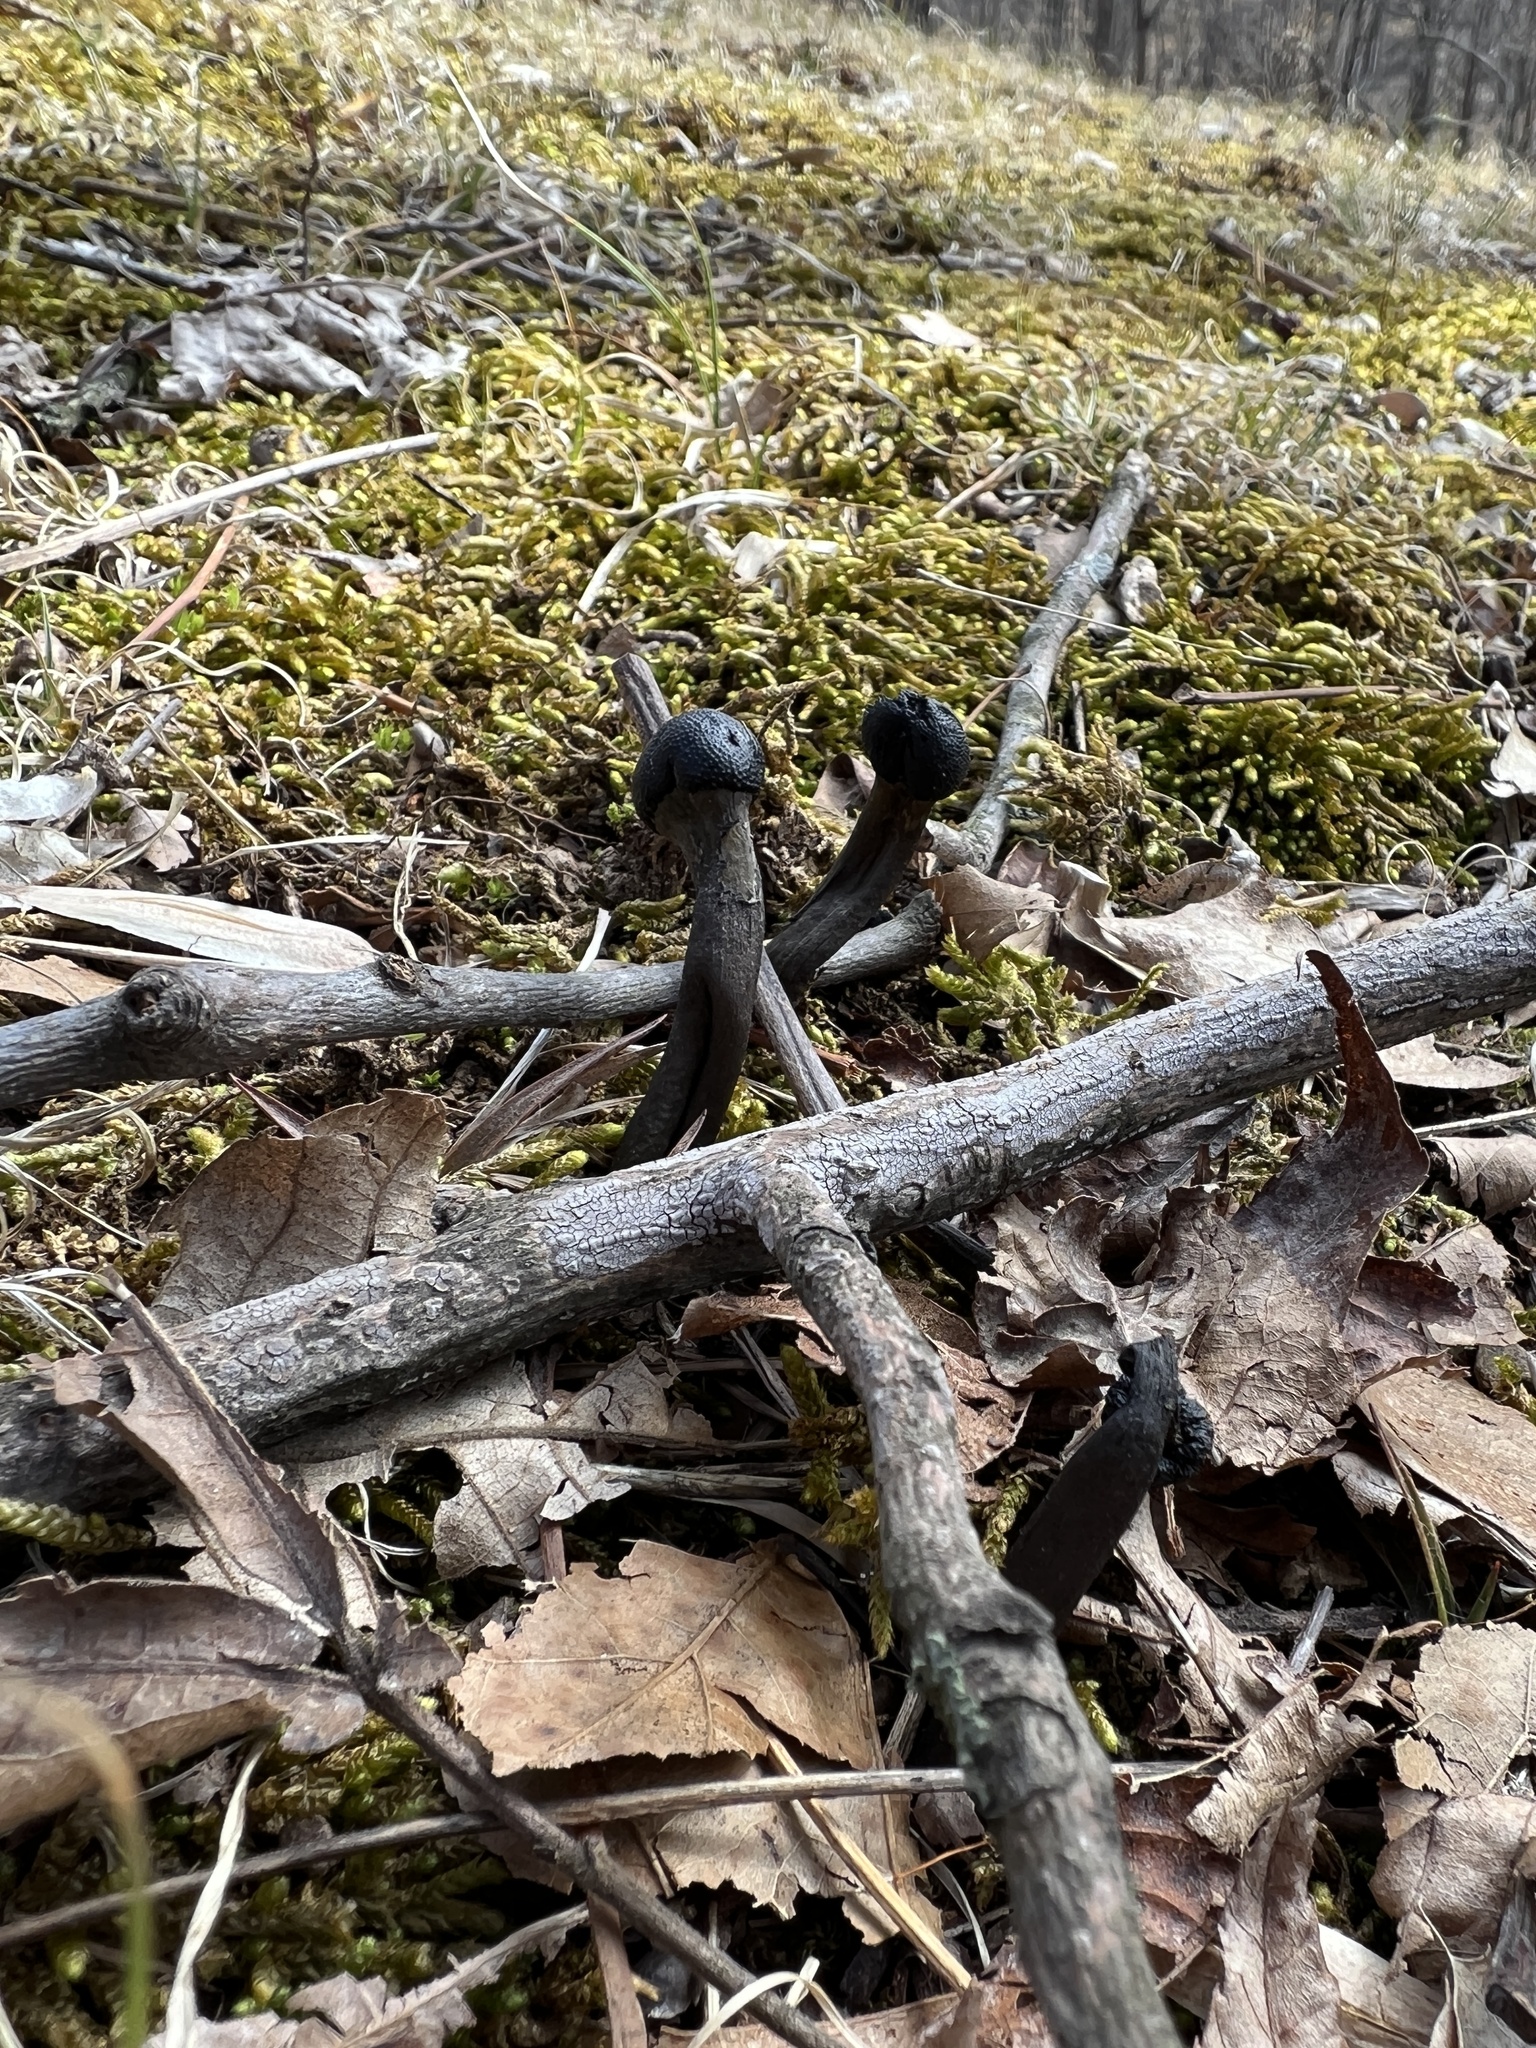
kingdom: Fungi
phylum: Ascomycota
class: Sordariomycetes
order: Hypocreales
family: Ophiocordycipitaceae
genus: Tolypocladium
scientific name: Tolypocladium longisegmentatum
